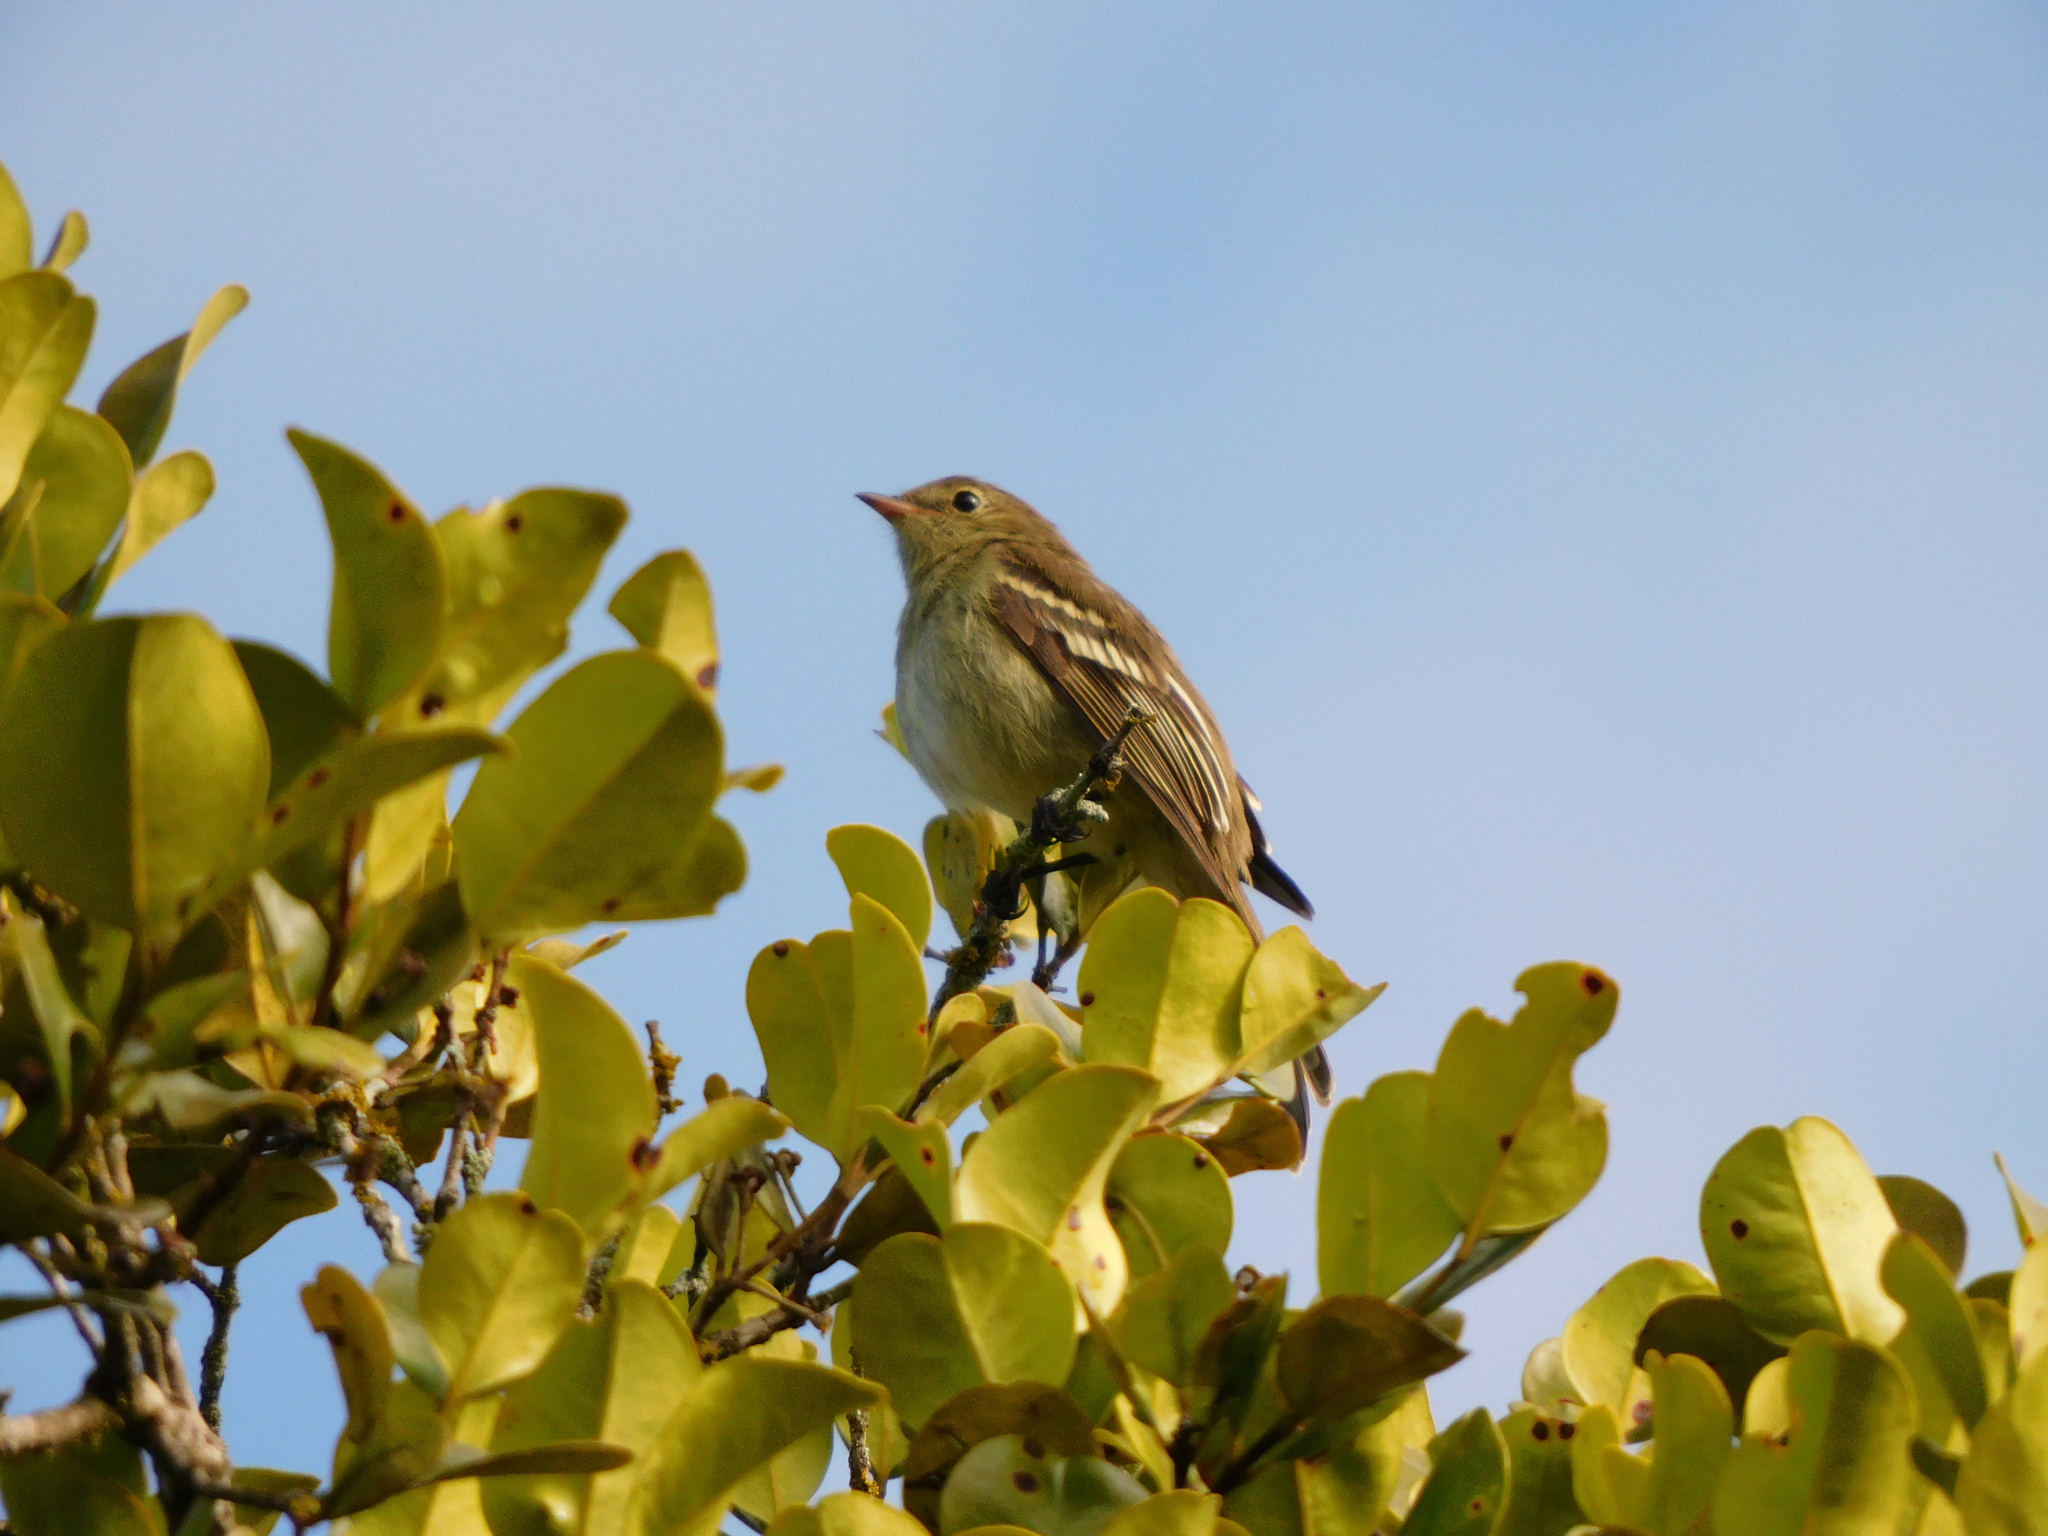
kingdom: Animalia
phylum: Chordata
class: Aves
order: Passeriformes
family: Tyrannidae
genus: Elaenia
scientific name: Elaenia frantzii
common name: Mountain elaenia
